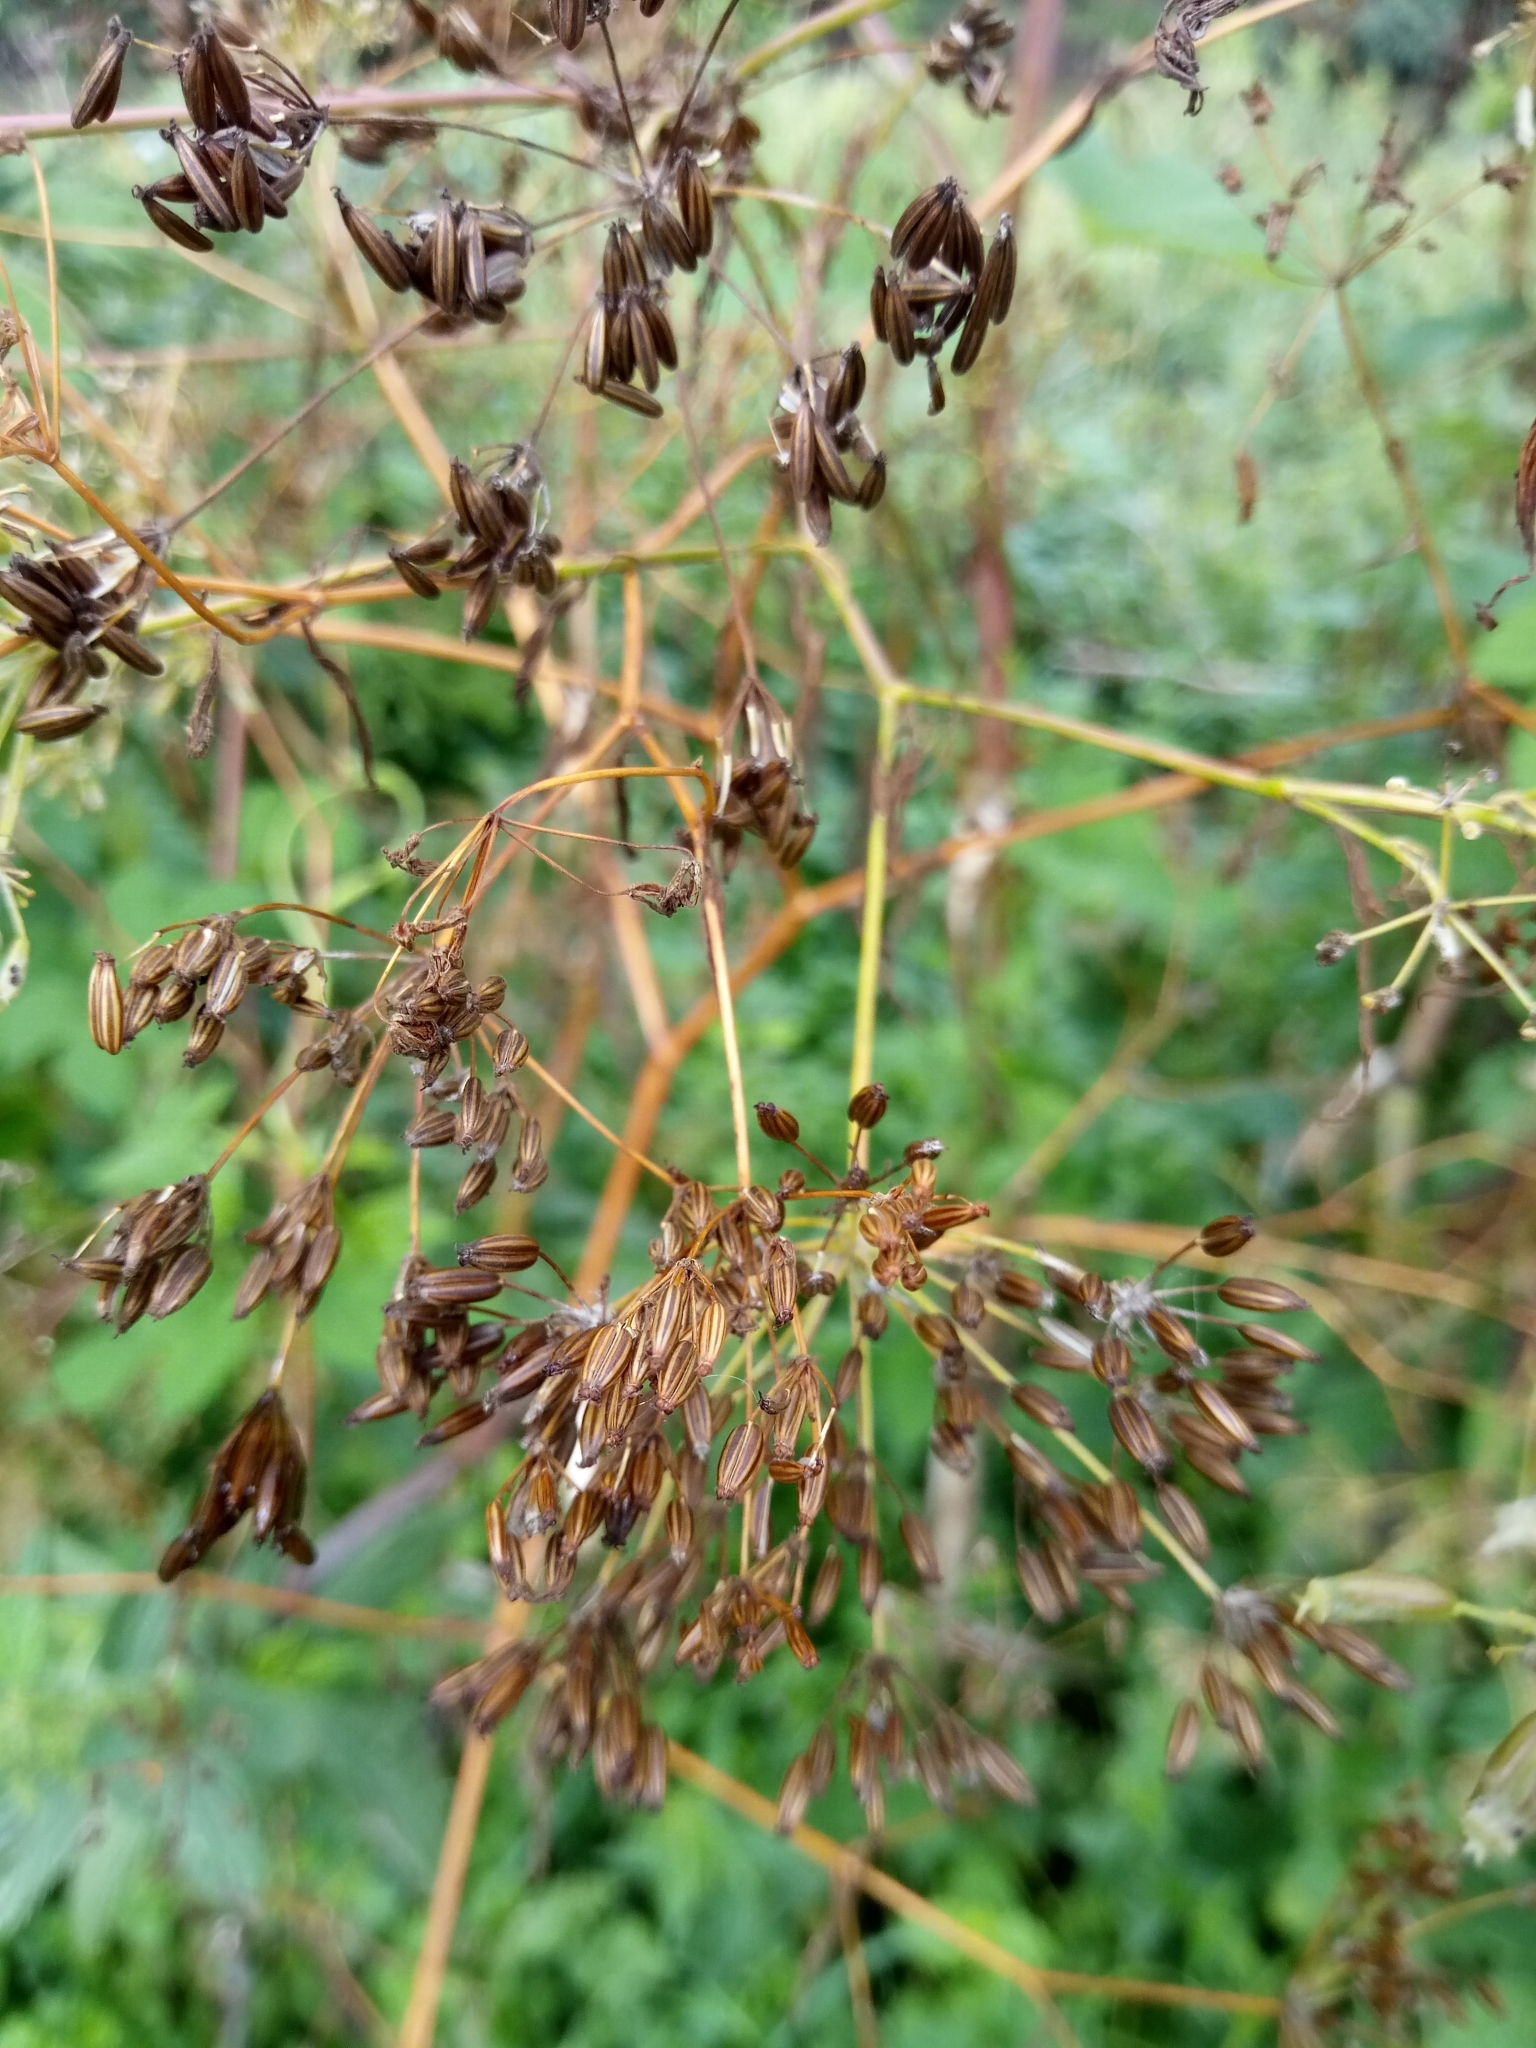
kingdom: Plantae
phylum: Tracheophyta
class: Magnoliopsida
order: Apiales
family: Apiaceae
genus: Chaerophyllum
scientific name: Chaerophyllum bulbosum
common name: Bulbous chervil
